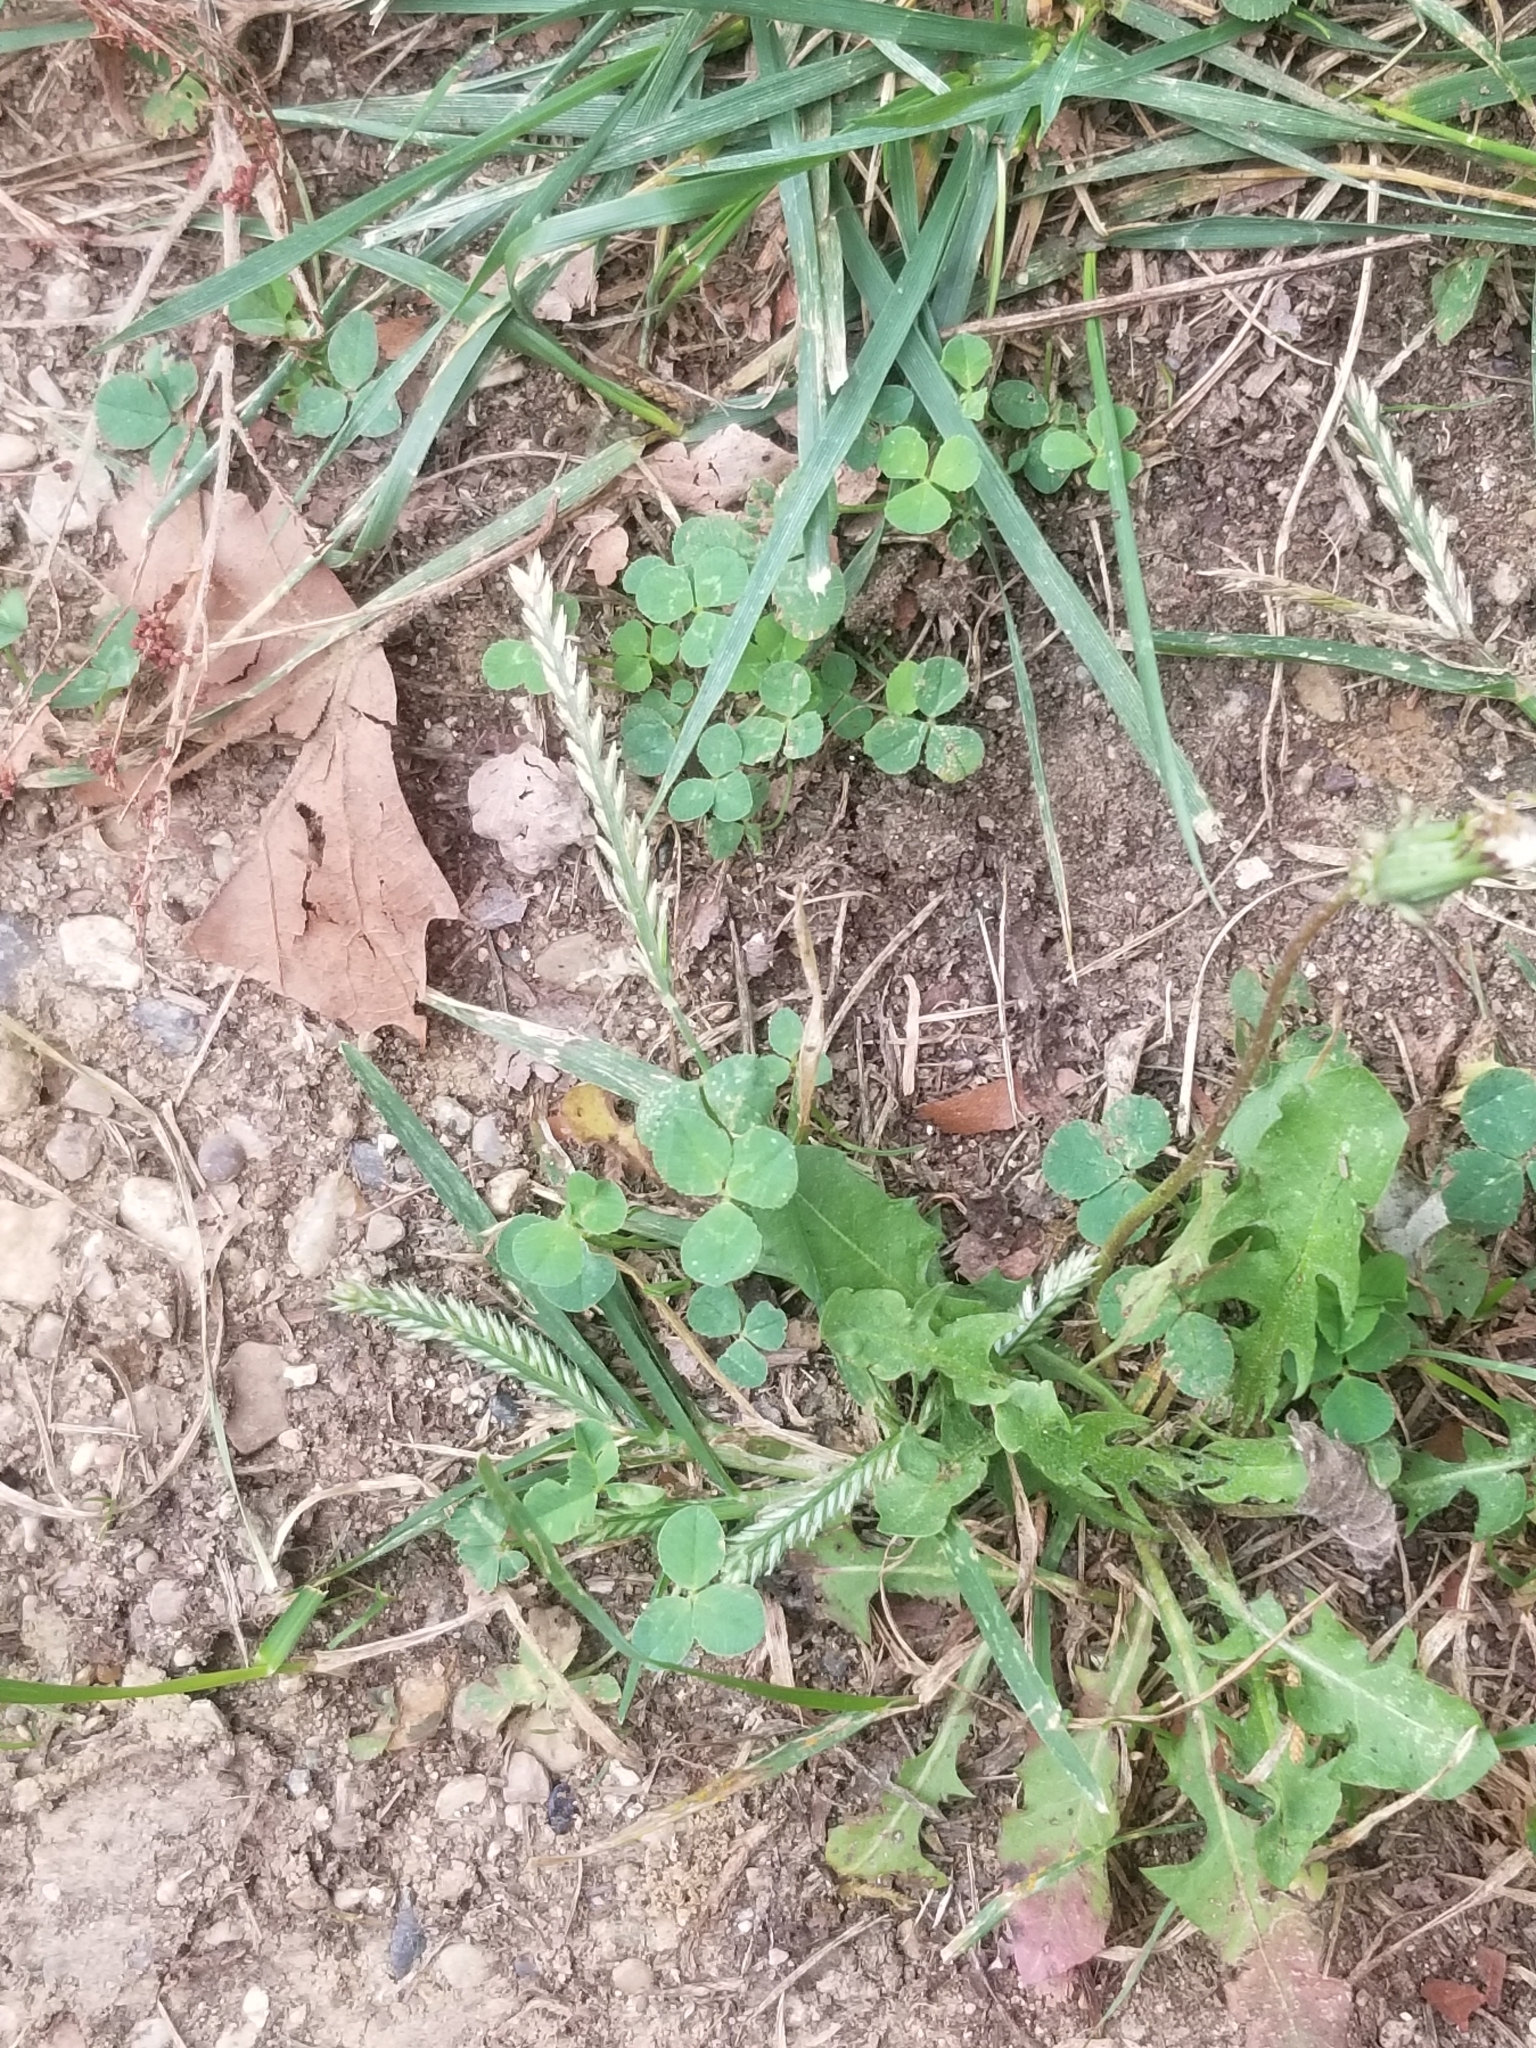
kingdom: Plantae
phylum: Tracheophyta
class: Liliopsida
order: Poales
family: Poaceae
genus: Eleusine
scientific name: Eleusine indica
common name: Yard-grass
